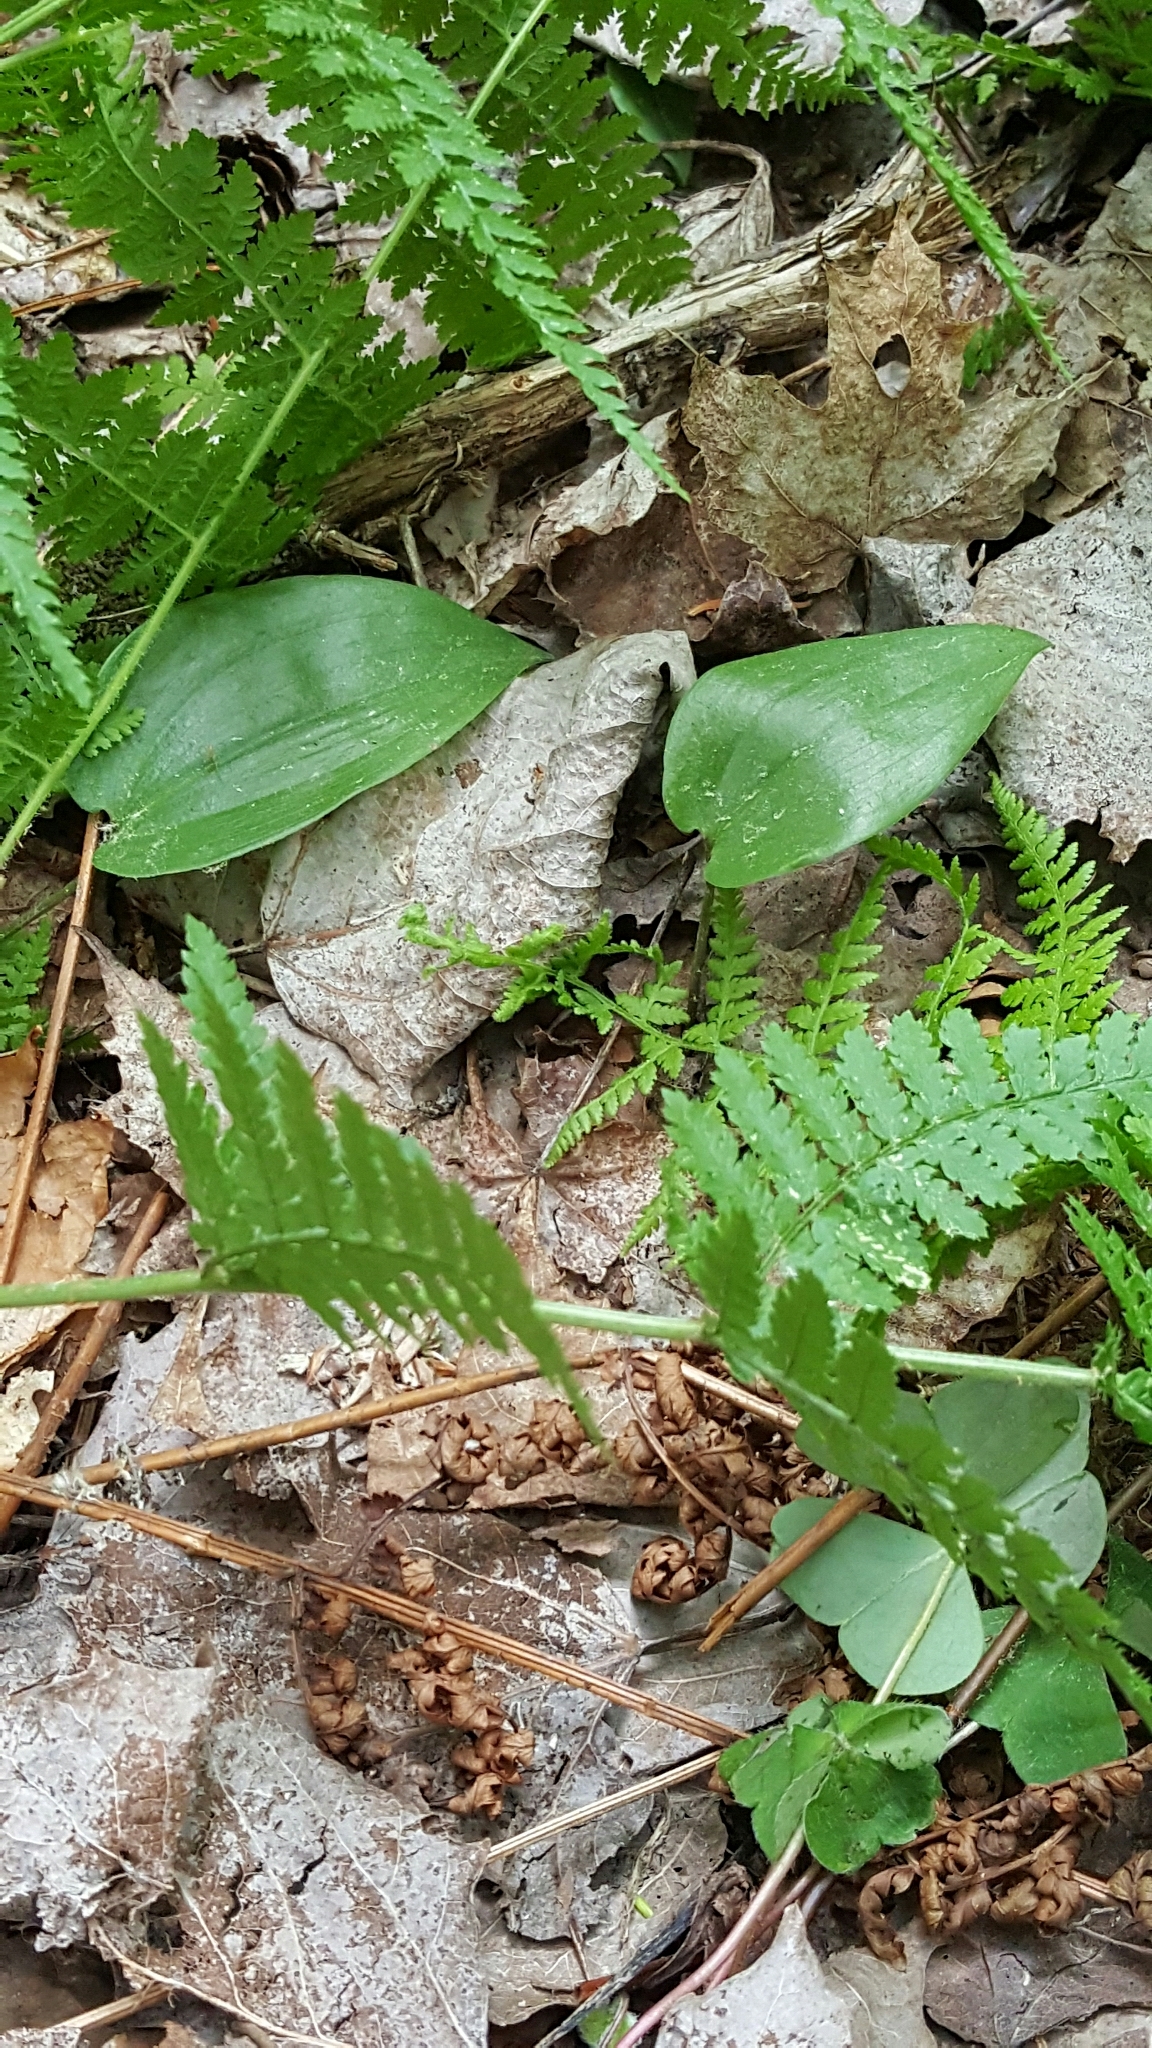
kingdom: Plantae
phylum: Tracheophyta
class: Liliopsida
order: Asparagales
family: Asparagaceae
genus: Maianthemum
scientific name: Maianthemum canadense
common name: False lily-of-the-valley
